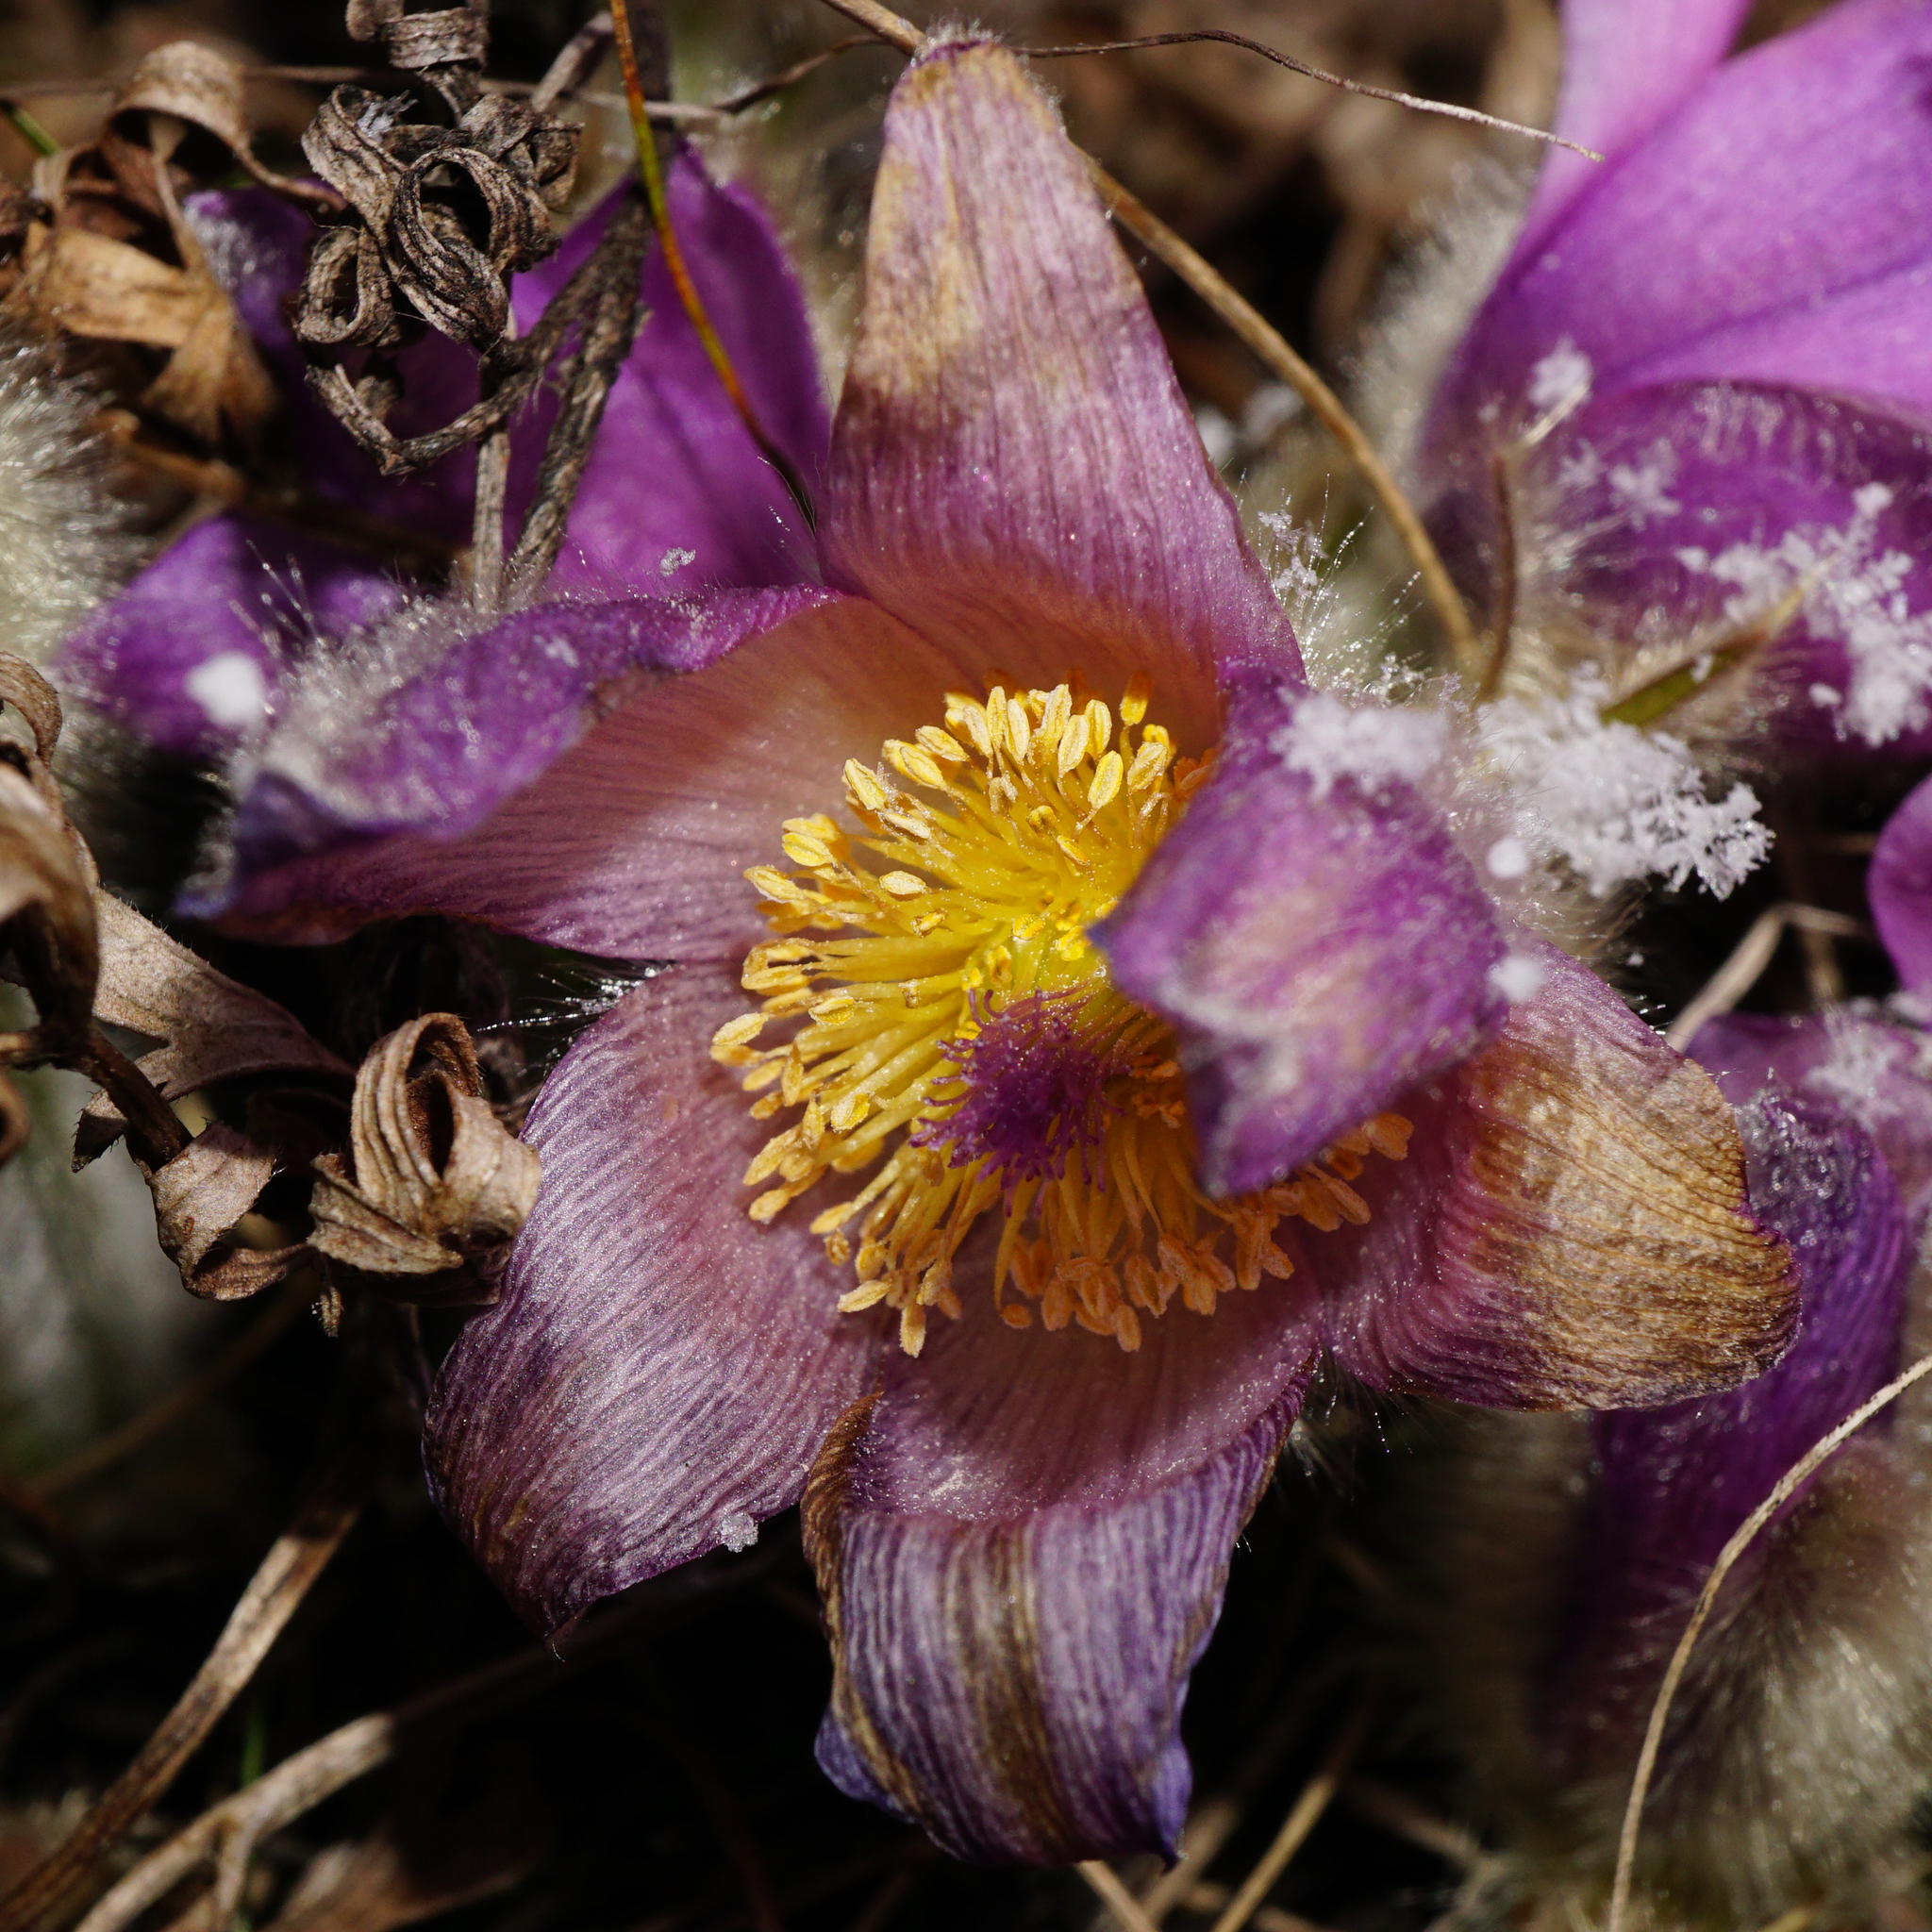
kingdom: Plantae
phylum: Tracheophyta
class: Magnoliopsida
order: Ranunculales
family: Ranunculaceae
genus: Pulsatilla
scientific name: Pulsatilla grandis
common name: Greater pasque flower
